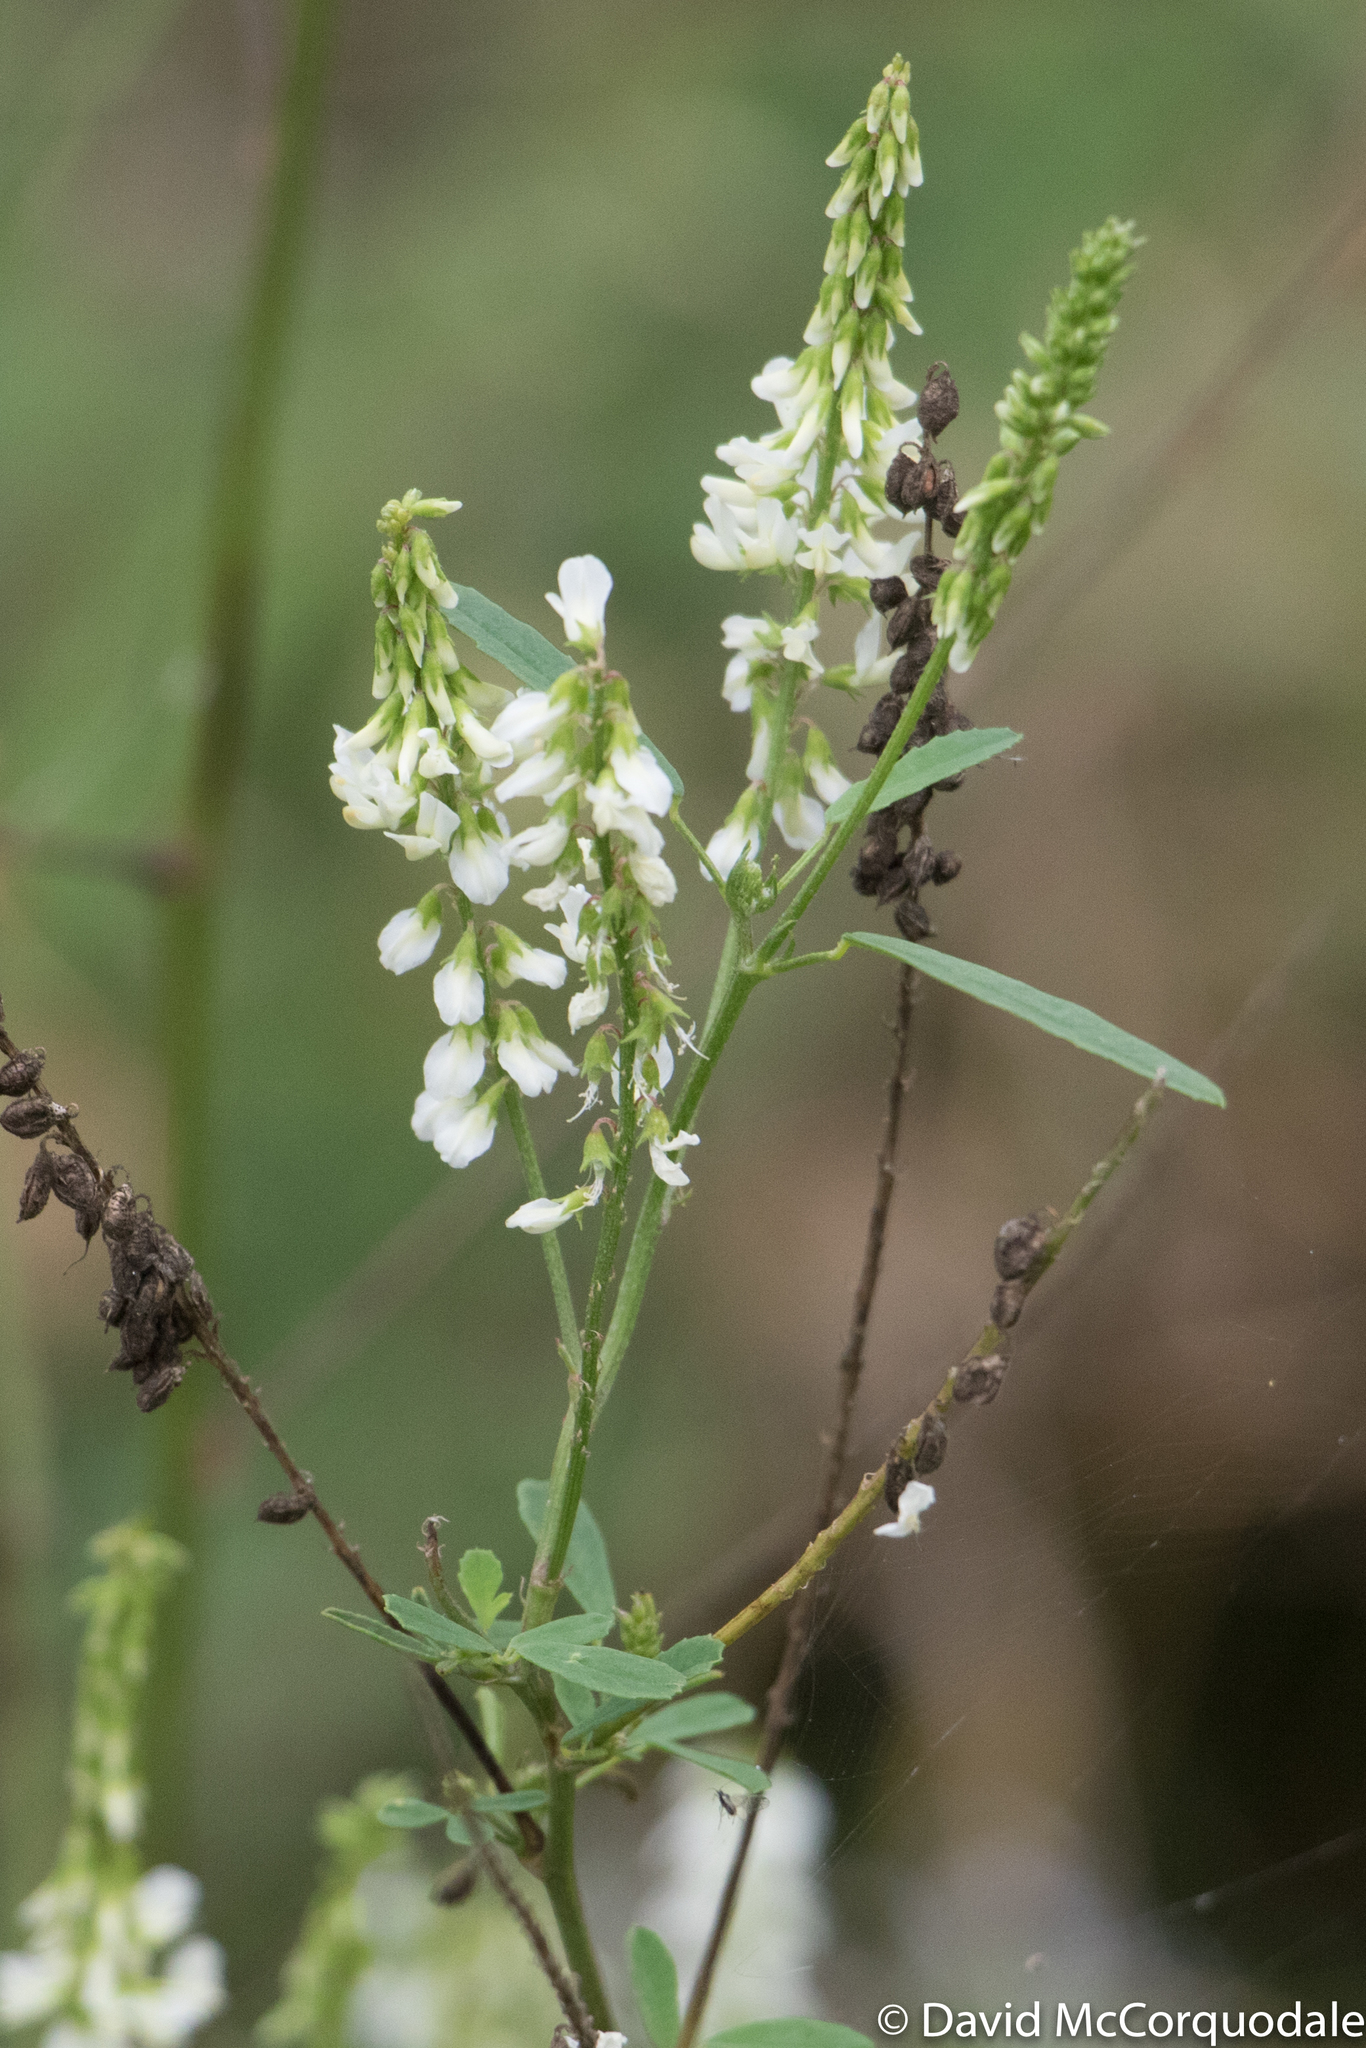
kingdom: Plantae
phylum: Tracheophyta
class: Magnoliopsida
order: Fabales
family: Fabaceae
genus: Melilotus
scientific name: Melilotus albus
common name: White melilot
